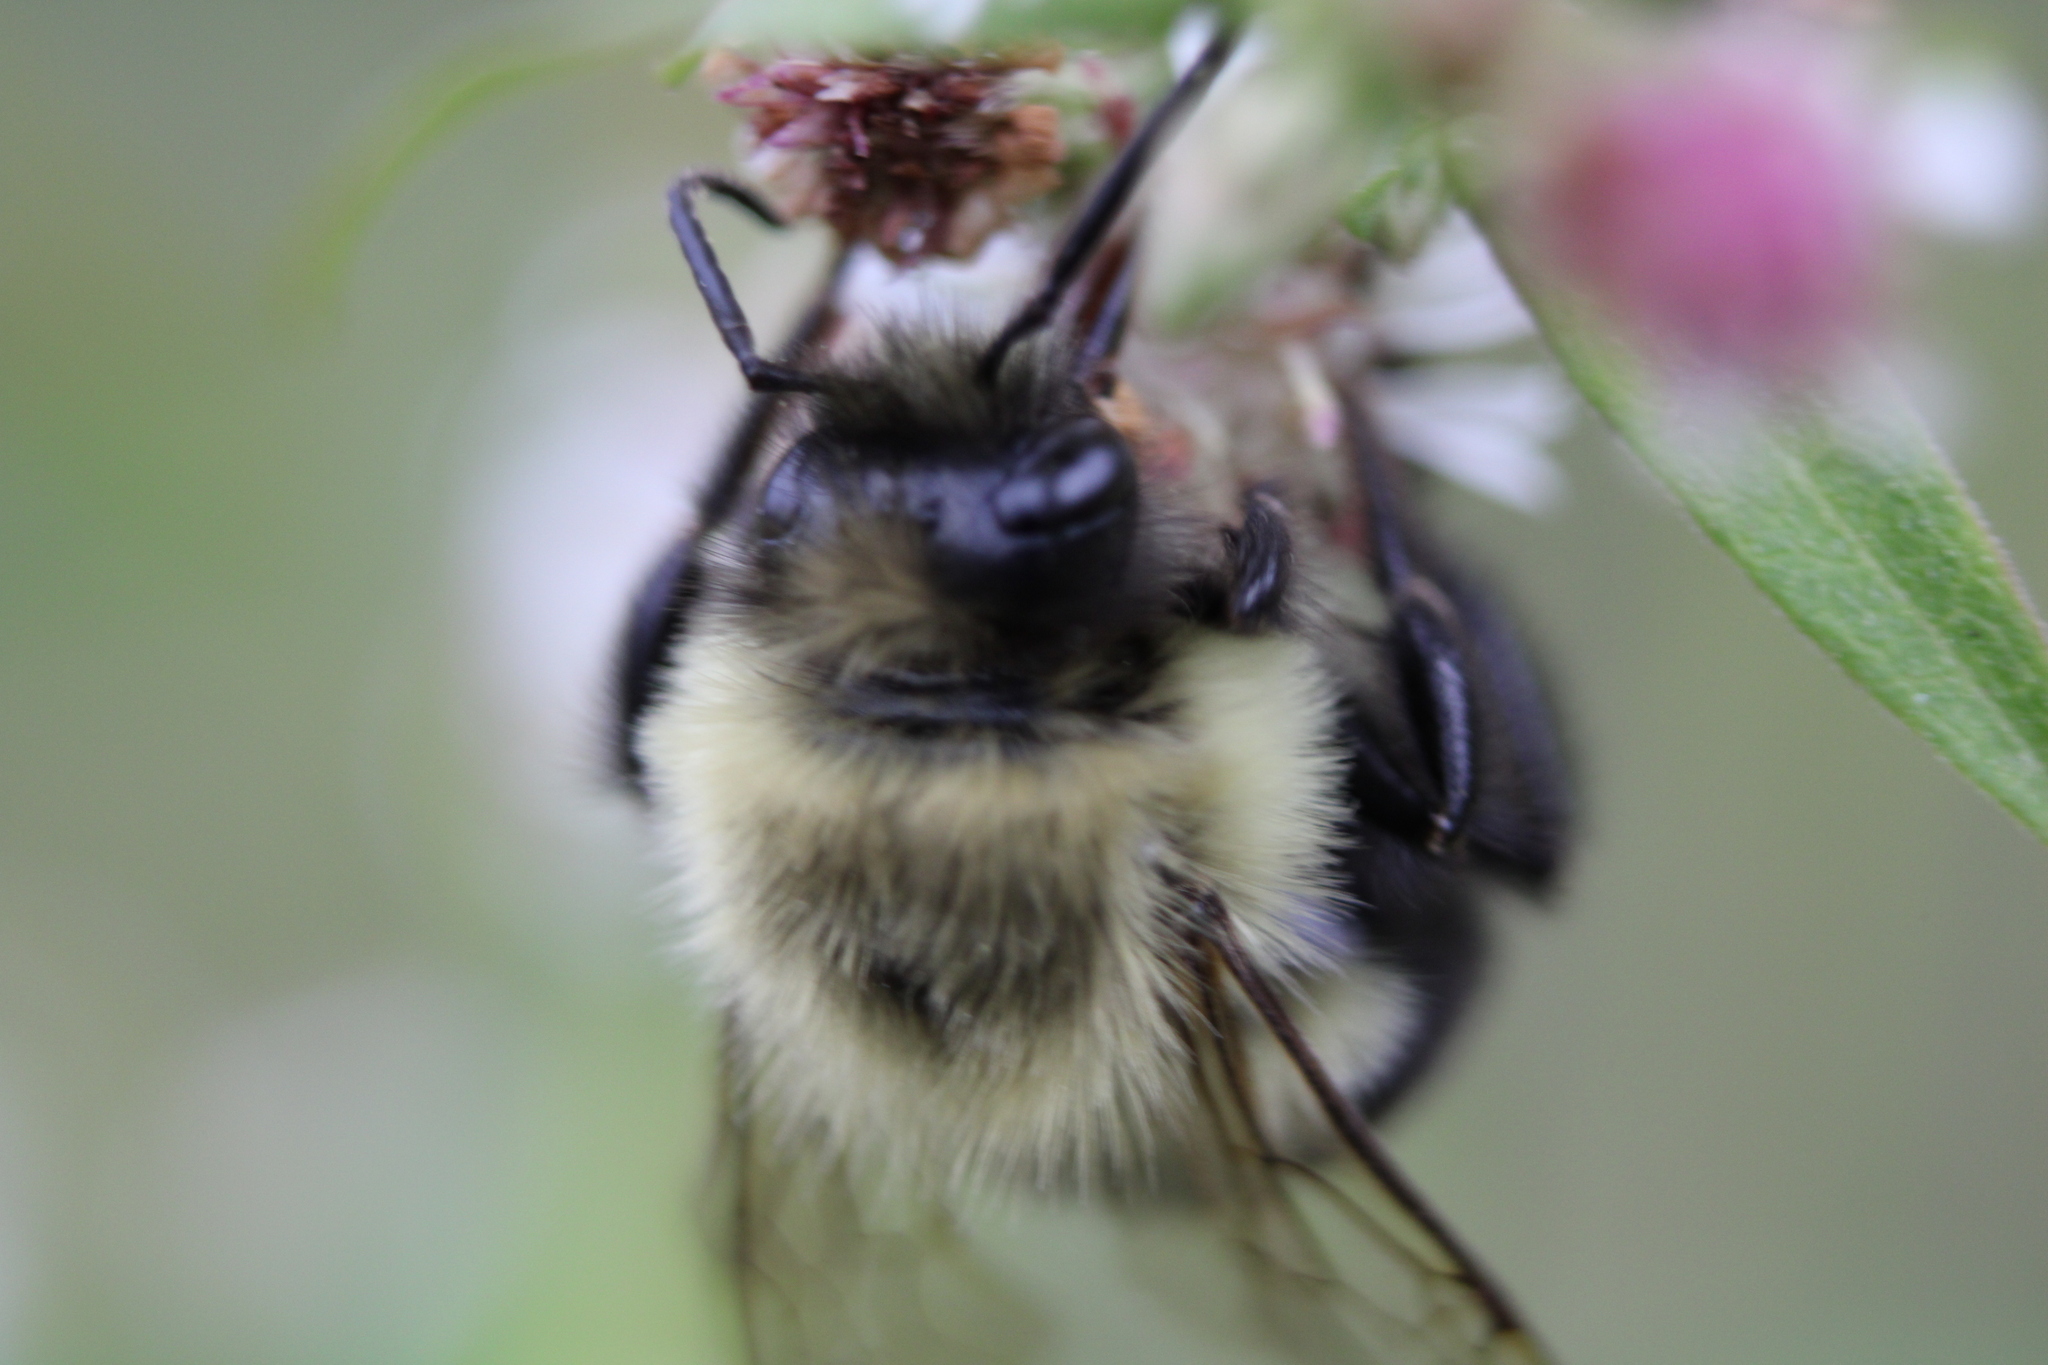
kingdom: Animalia
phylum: Arthropoda
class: Insecta
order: Hymenoptera
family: Apidae
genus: Bombus
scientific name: Bombus impatiens
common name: Common eastern bumble bee
